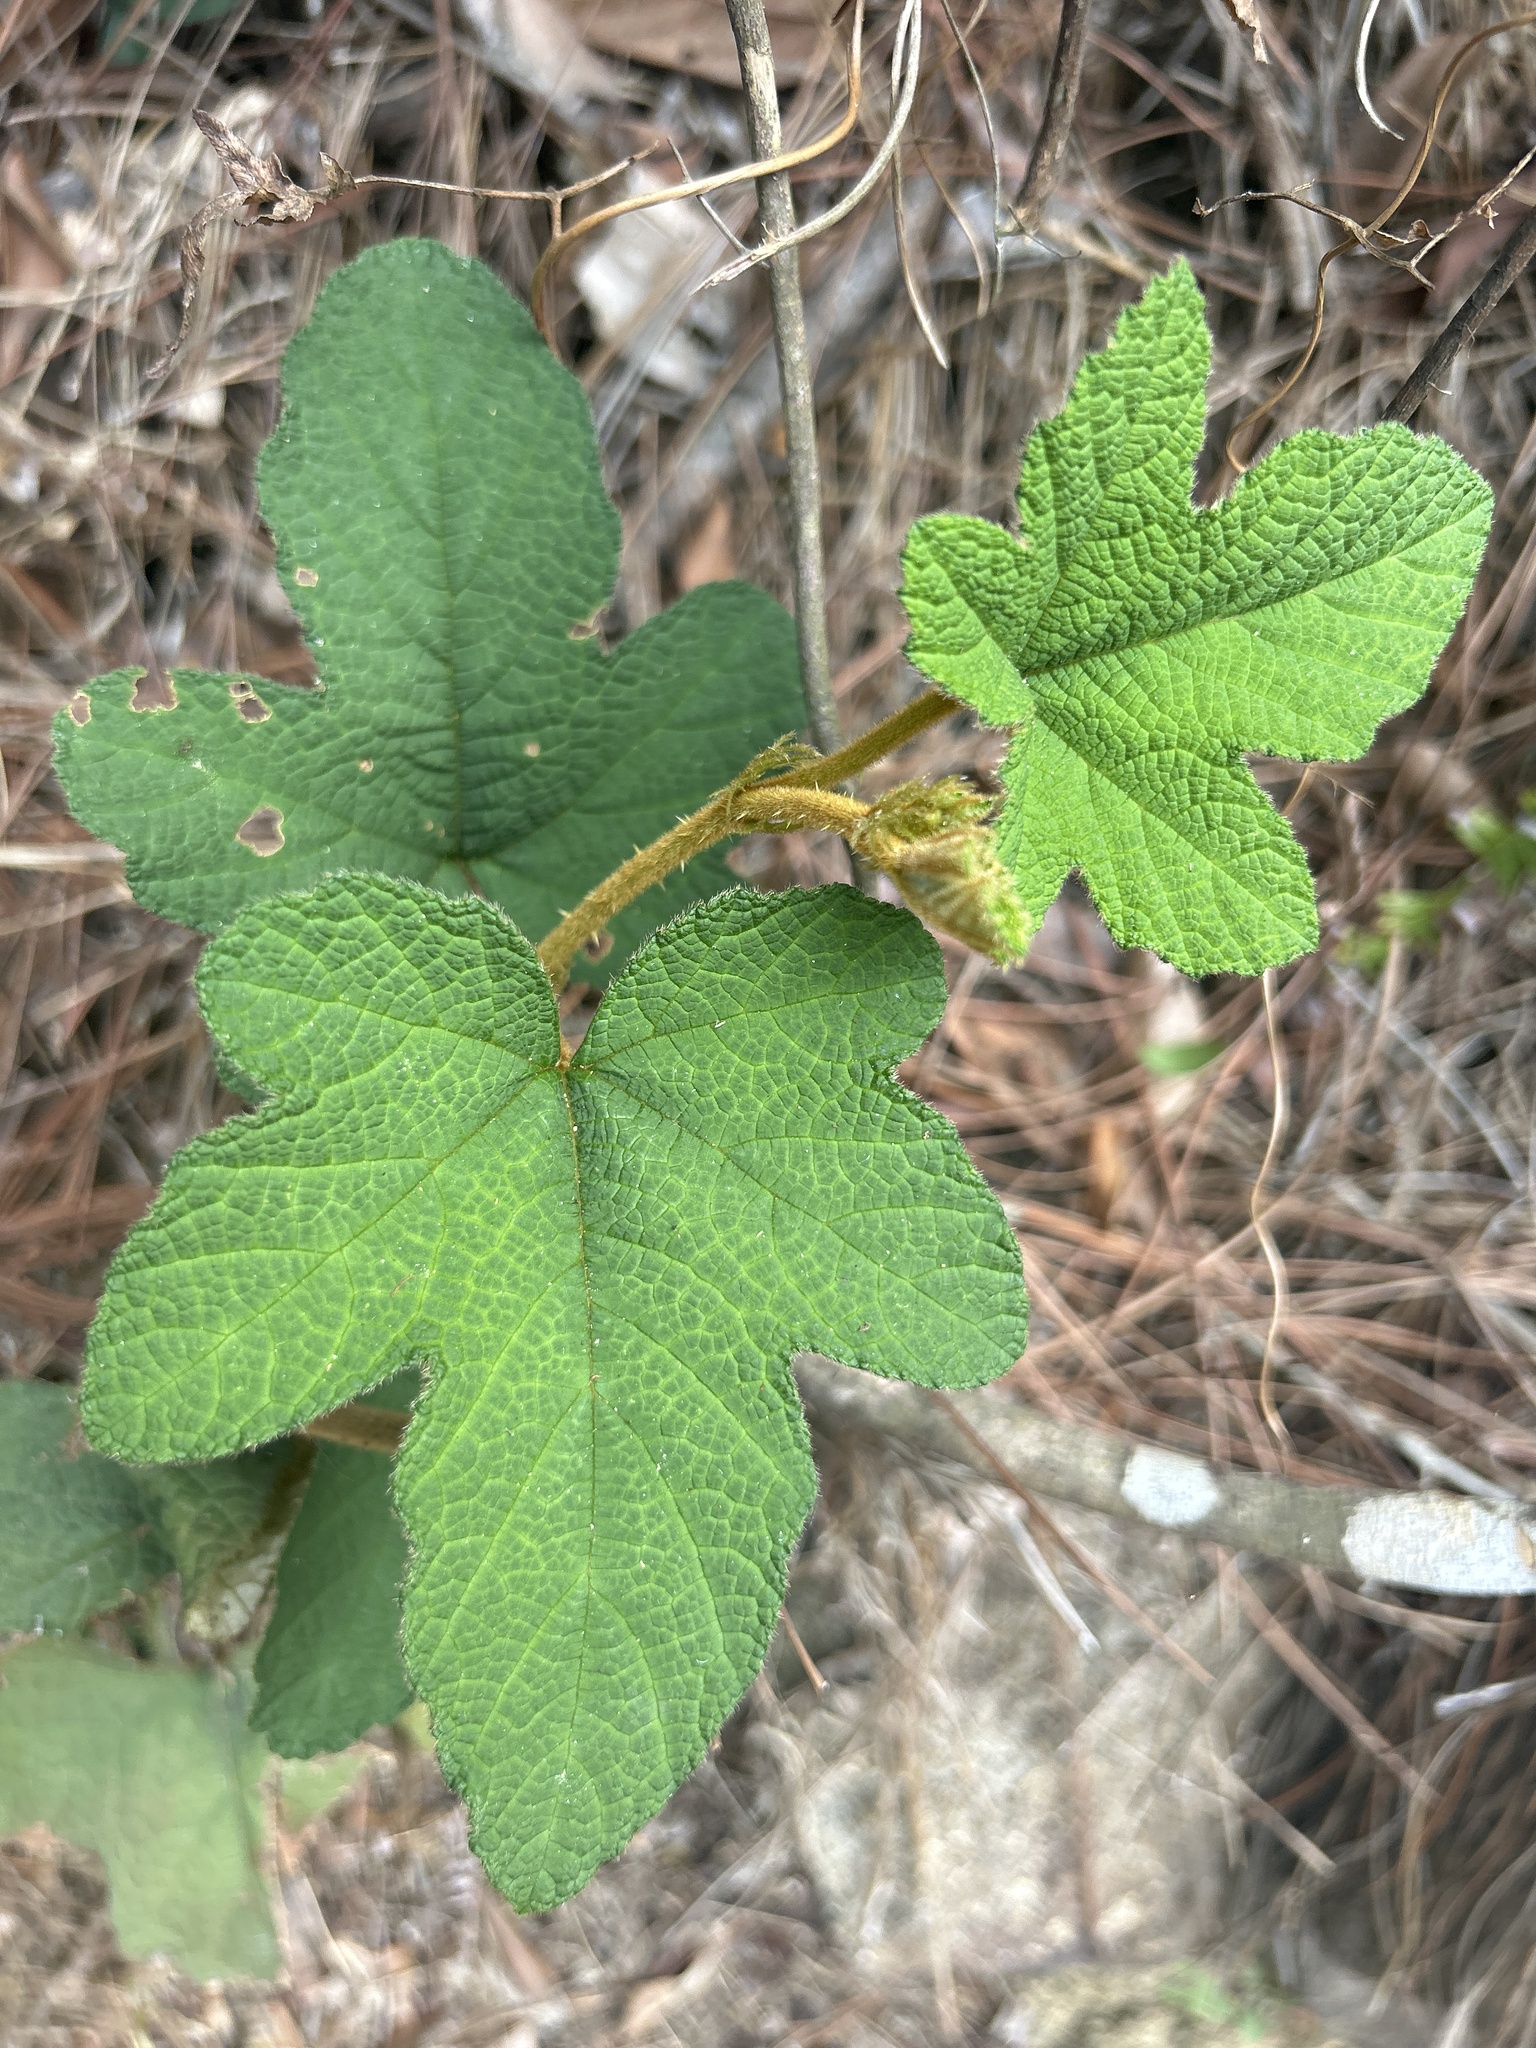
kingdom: Plantae
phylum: Tracheophyta
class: Magnoliopsida
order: Rosales
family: Rosaceae
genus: Rubus
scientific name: Rubus reflexus
